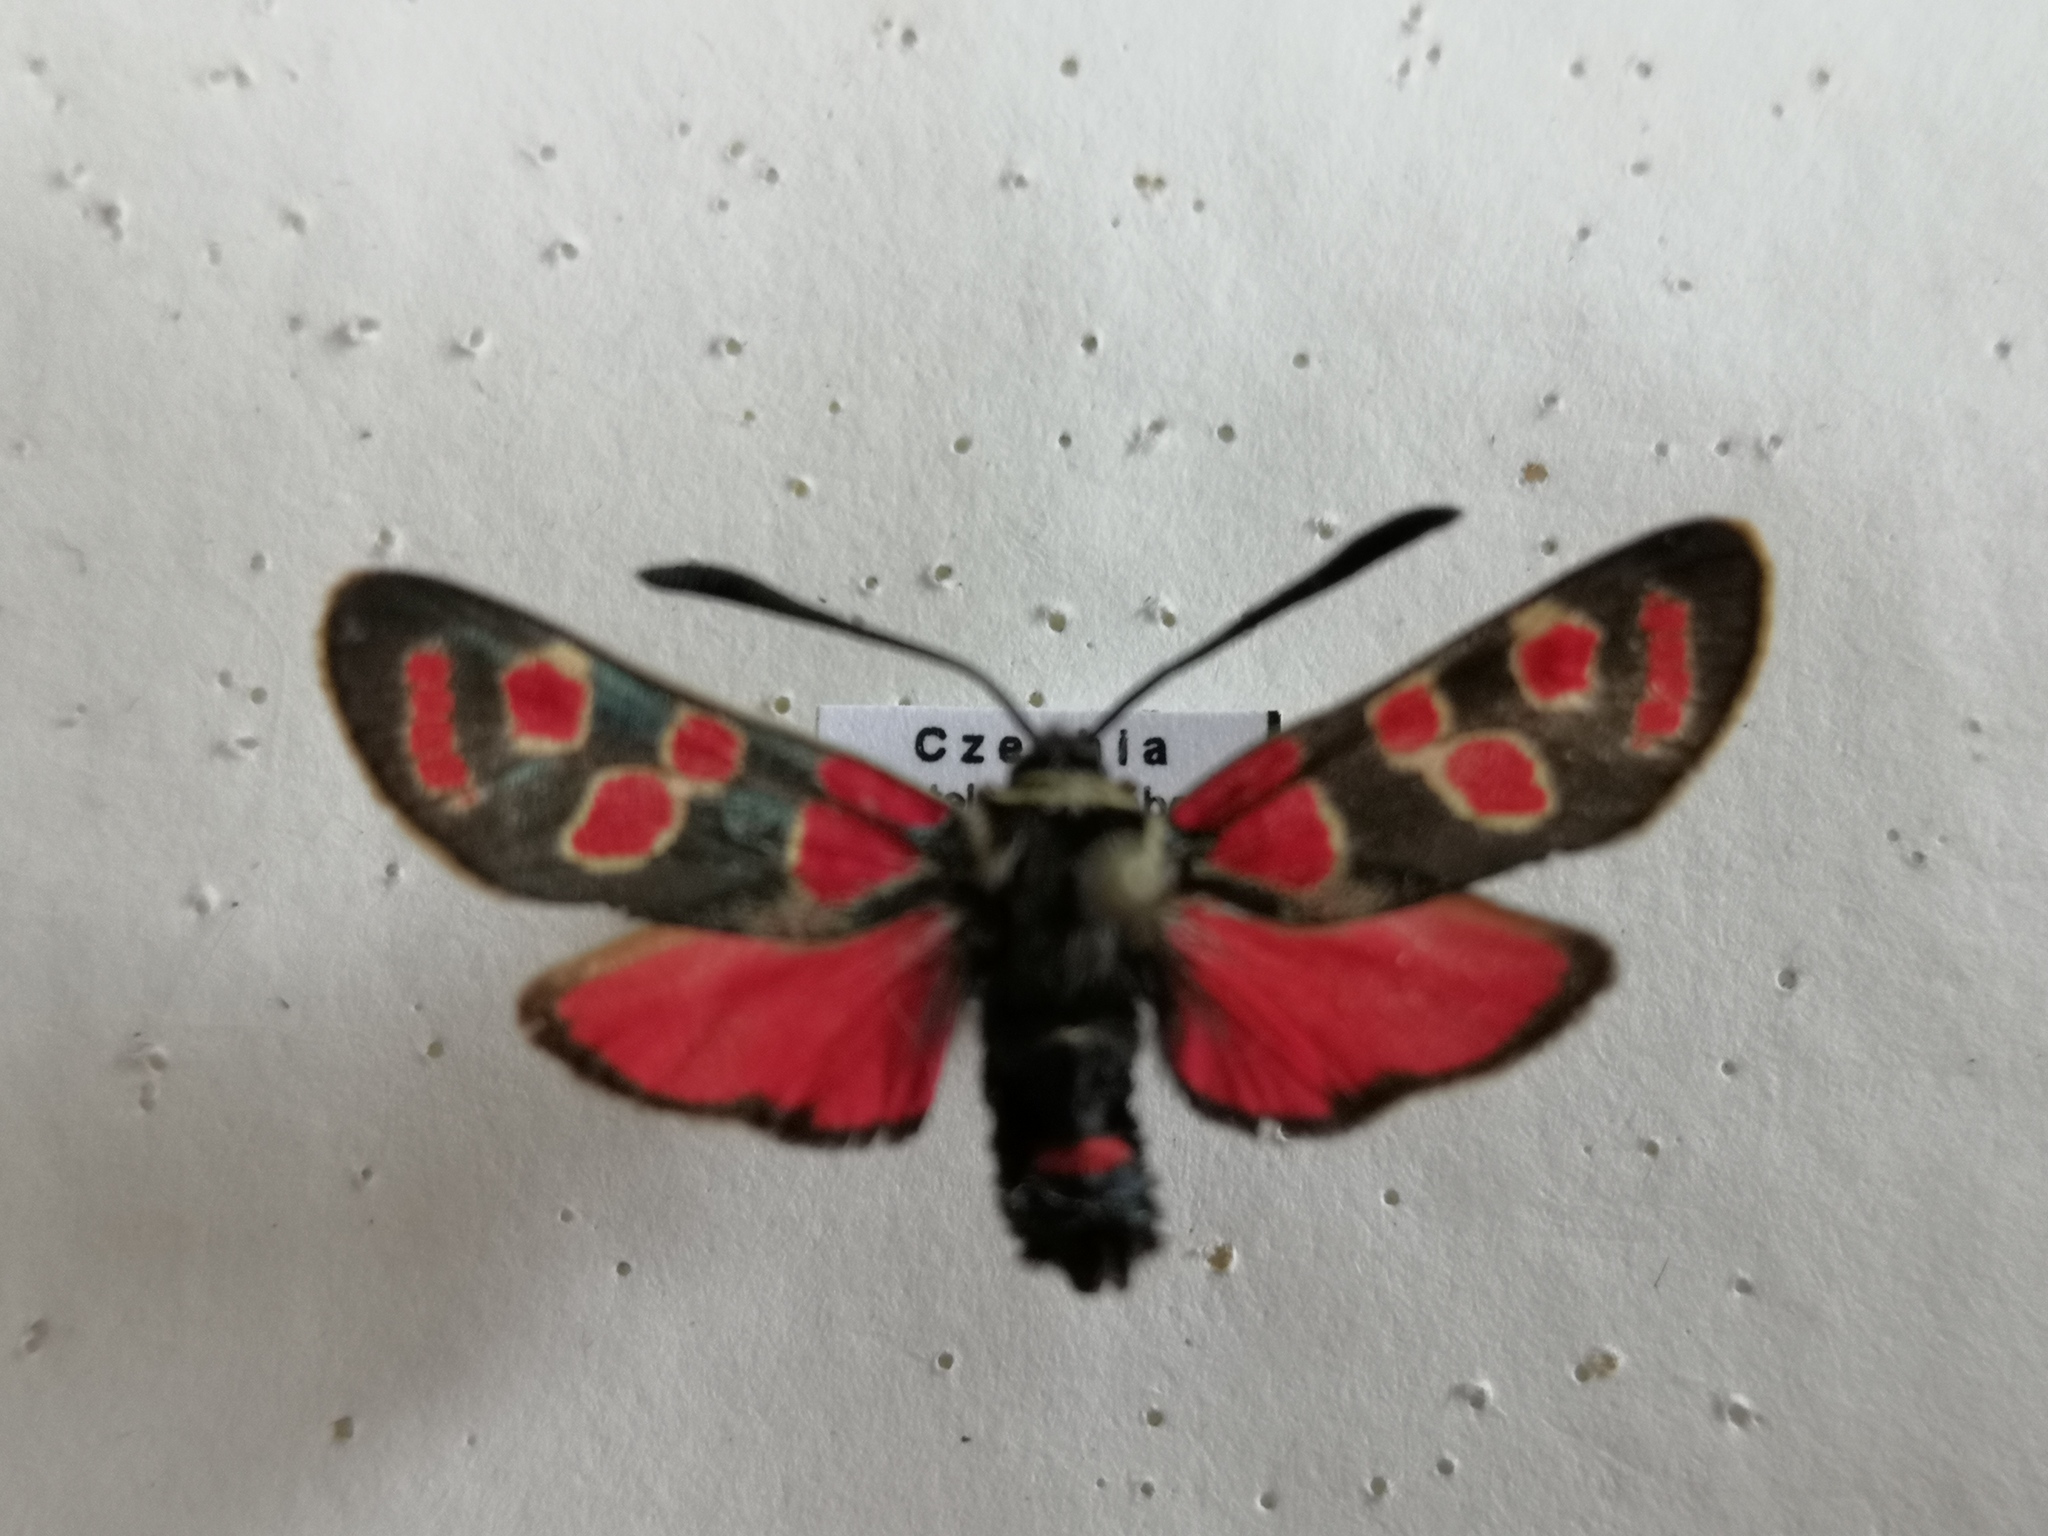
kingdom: Animalia
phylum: Arthropoda
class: Insecta
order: Lepidoptera
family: Zygaenidae
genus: Zygaena
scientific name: Zygaena carniolica
